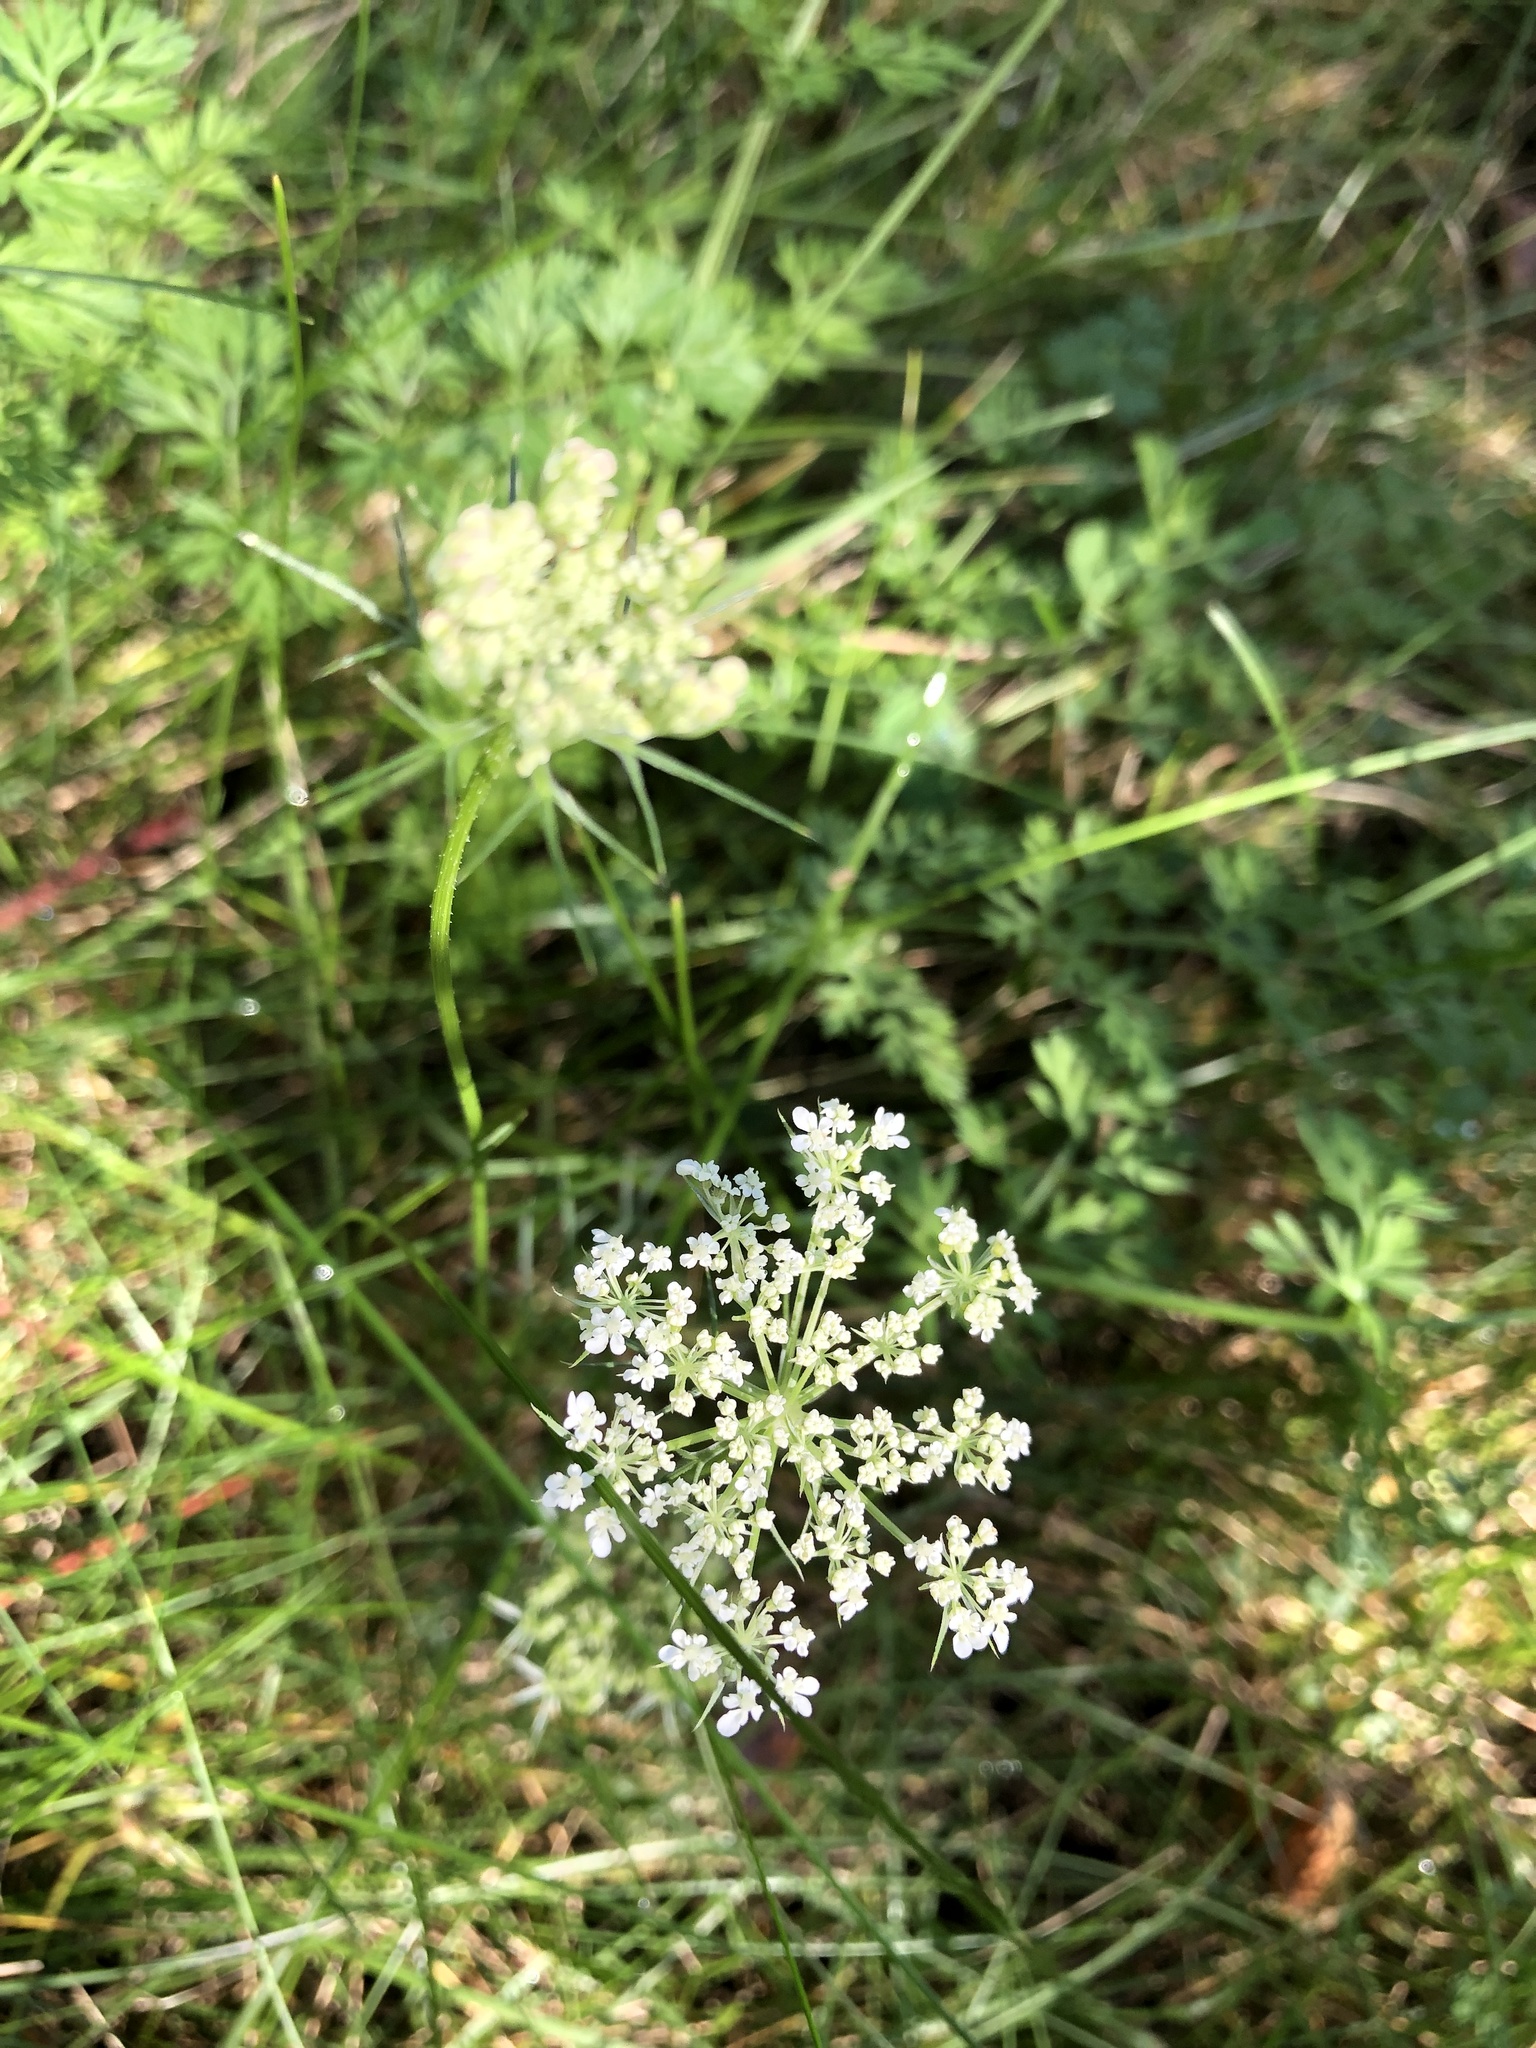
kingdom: Plantae
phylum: Tracheophyta
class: Magnoliopsida
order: Apiales
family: Apiaceae
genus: Daucus
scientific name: Daucus carota
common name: Wild carrot
